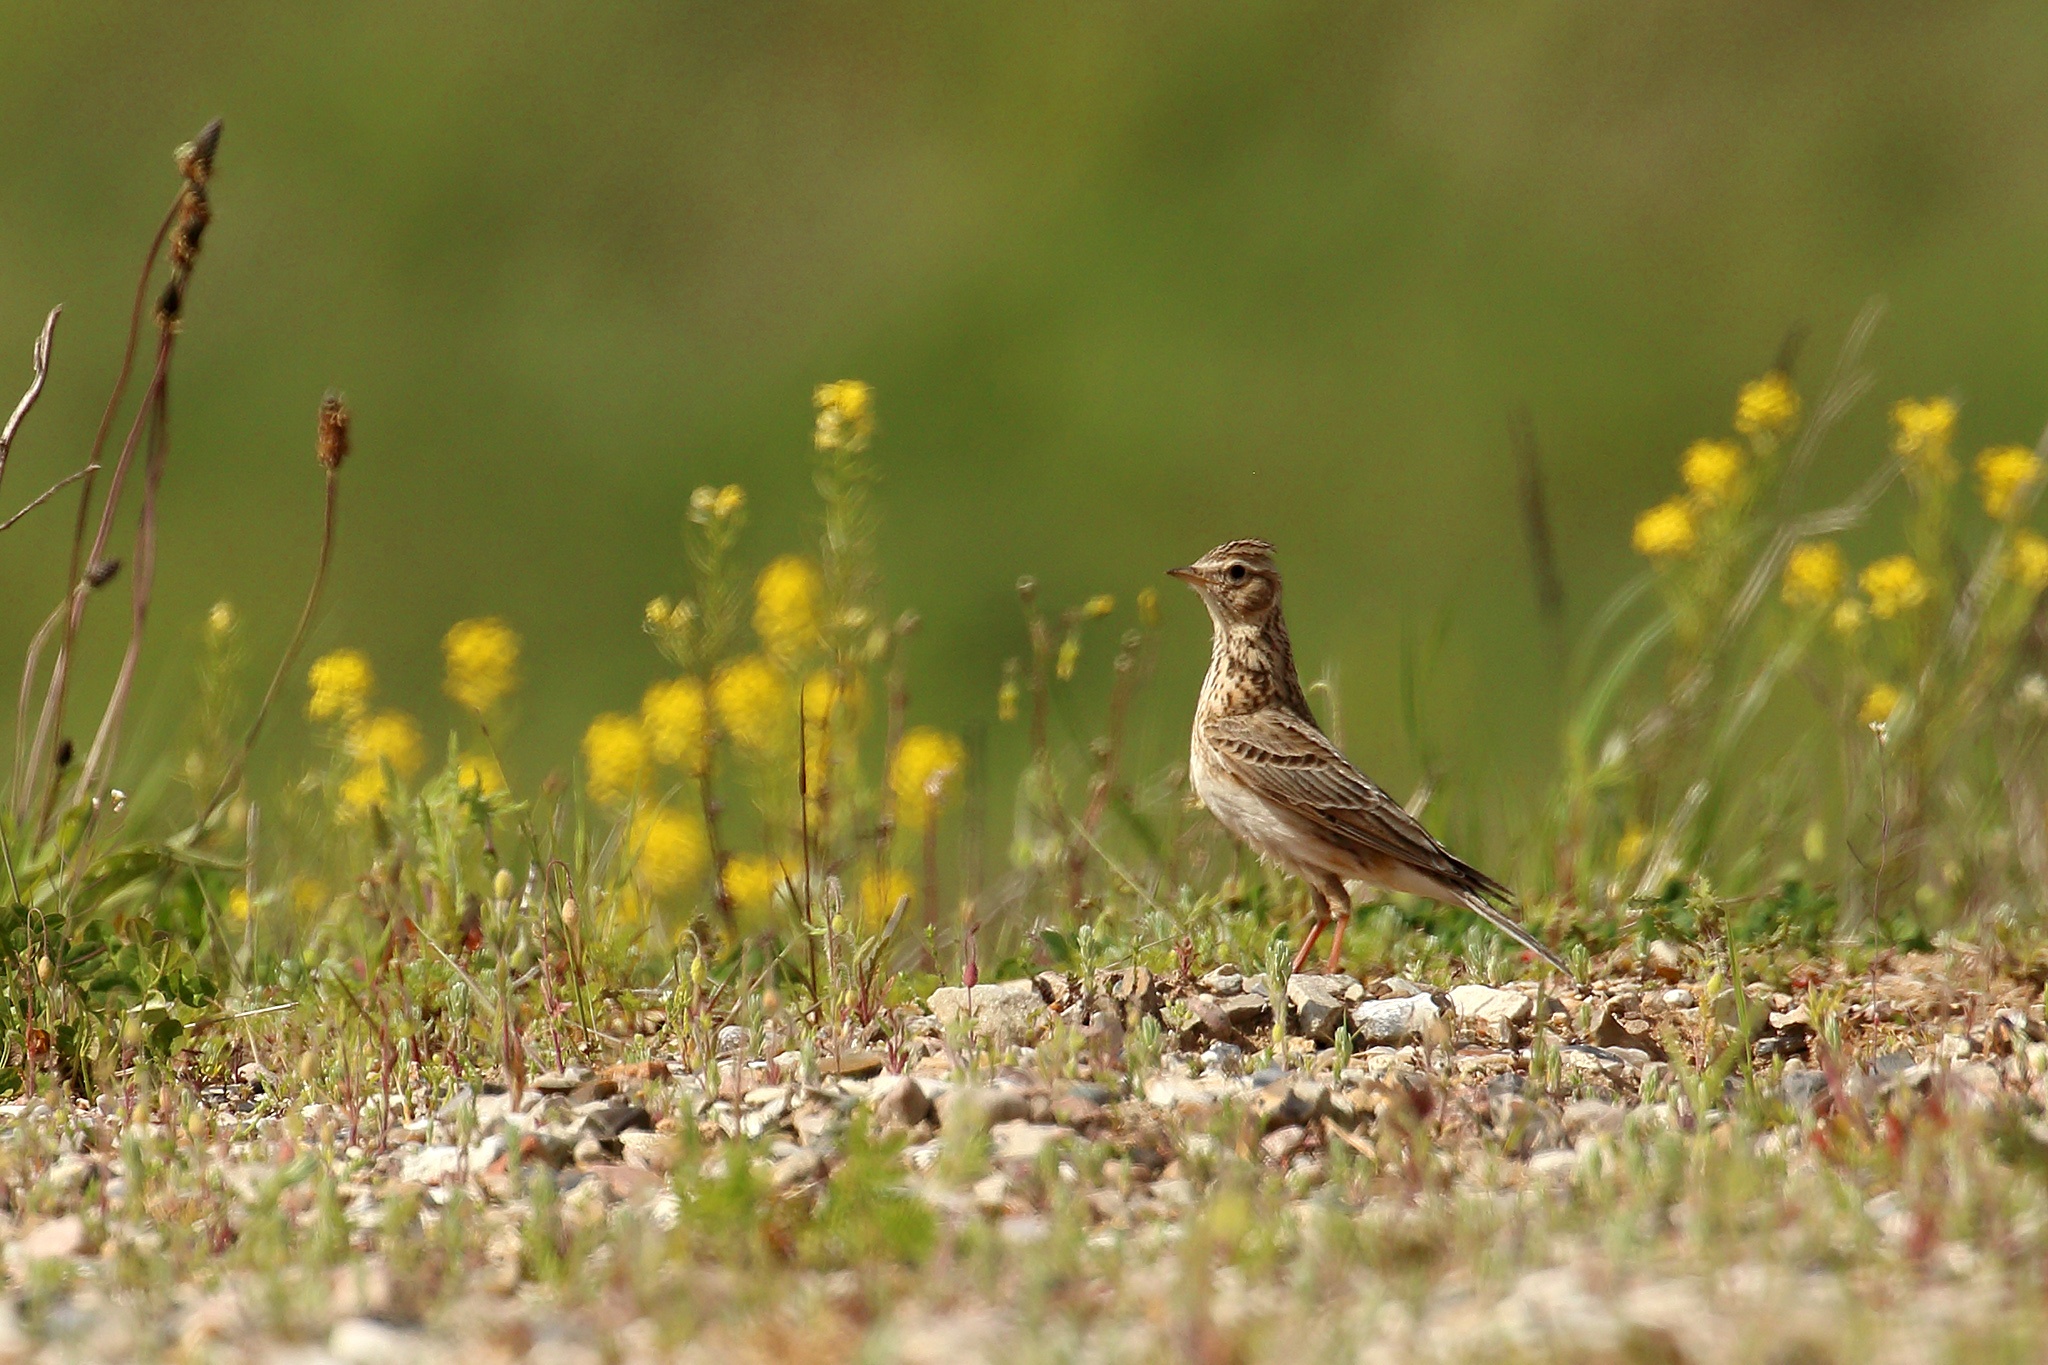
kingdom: Animalia
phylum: Chordata
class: Aves
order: Passeriformes
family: Alaudidae
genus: Alauda
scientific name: Alauda arvensis
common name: Eurasian skylark
